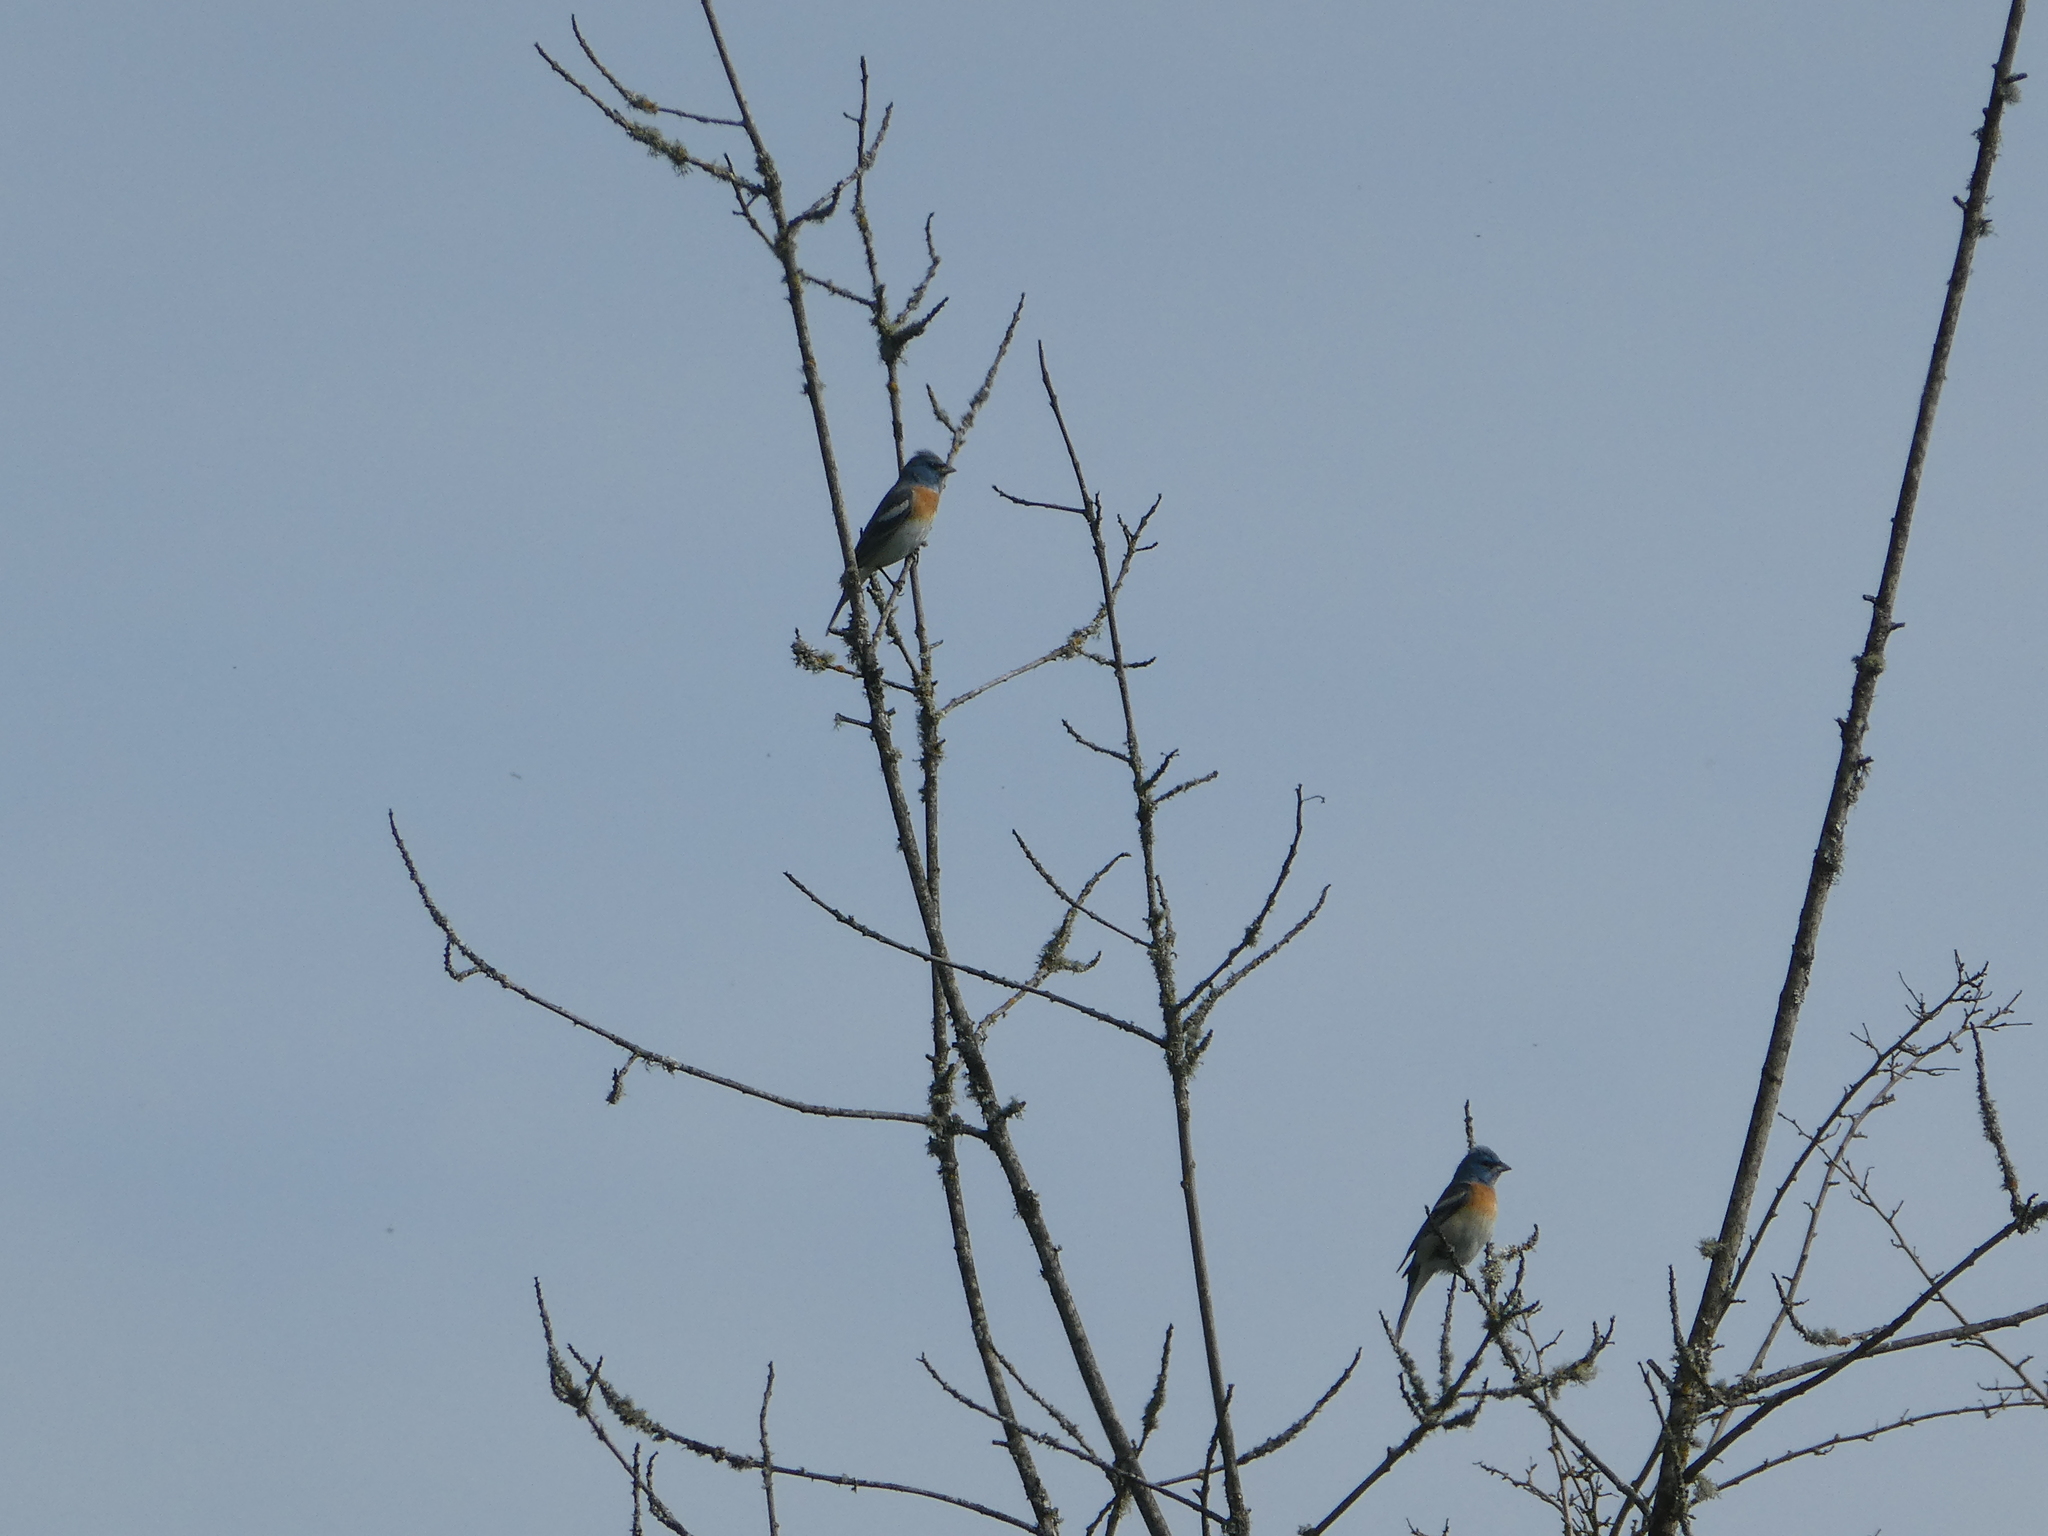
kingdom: Animalia
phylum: Chordata
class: Aves
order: Passeriformes
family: Cardinalidae
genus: Passerina
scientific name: Passerina amoena
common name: Lazuli bunting
